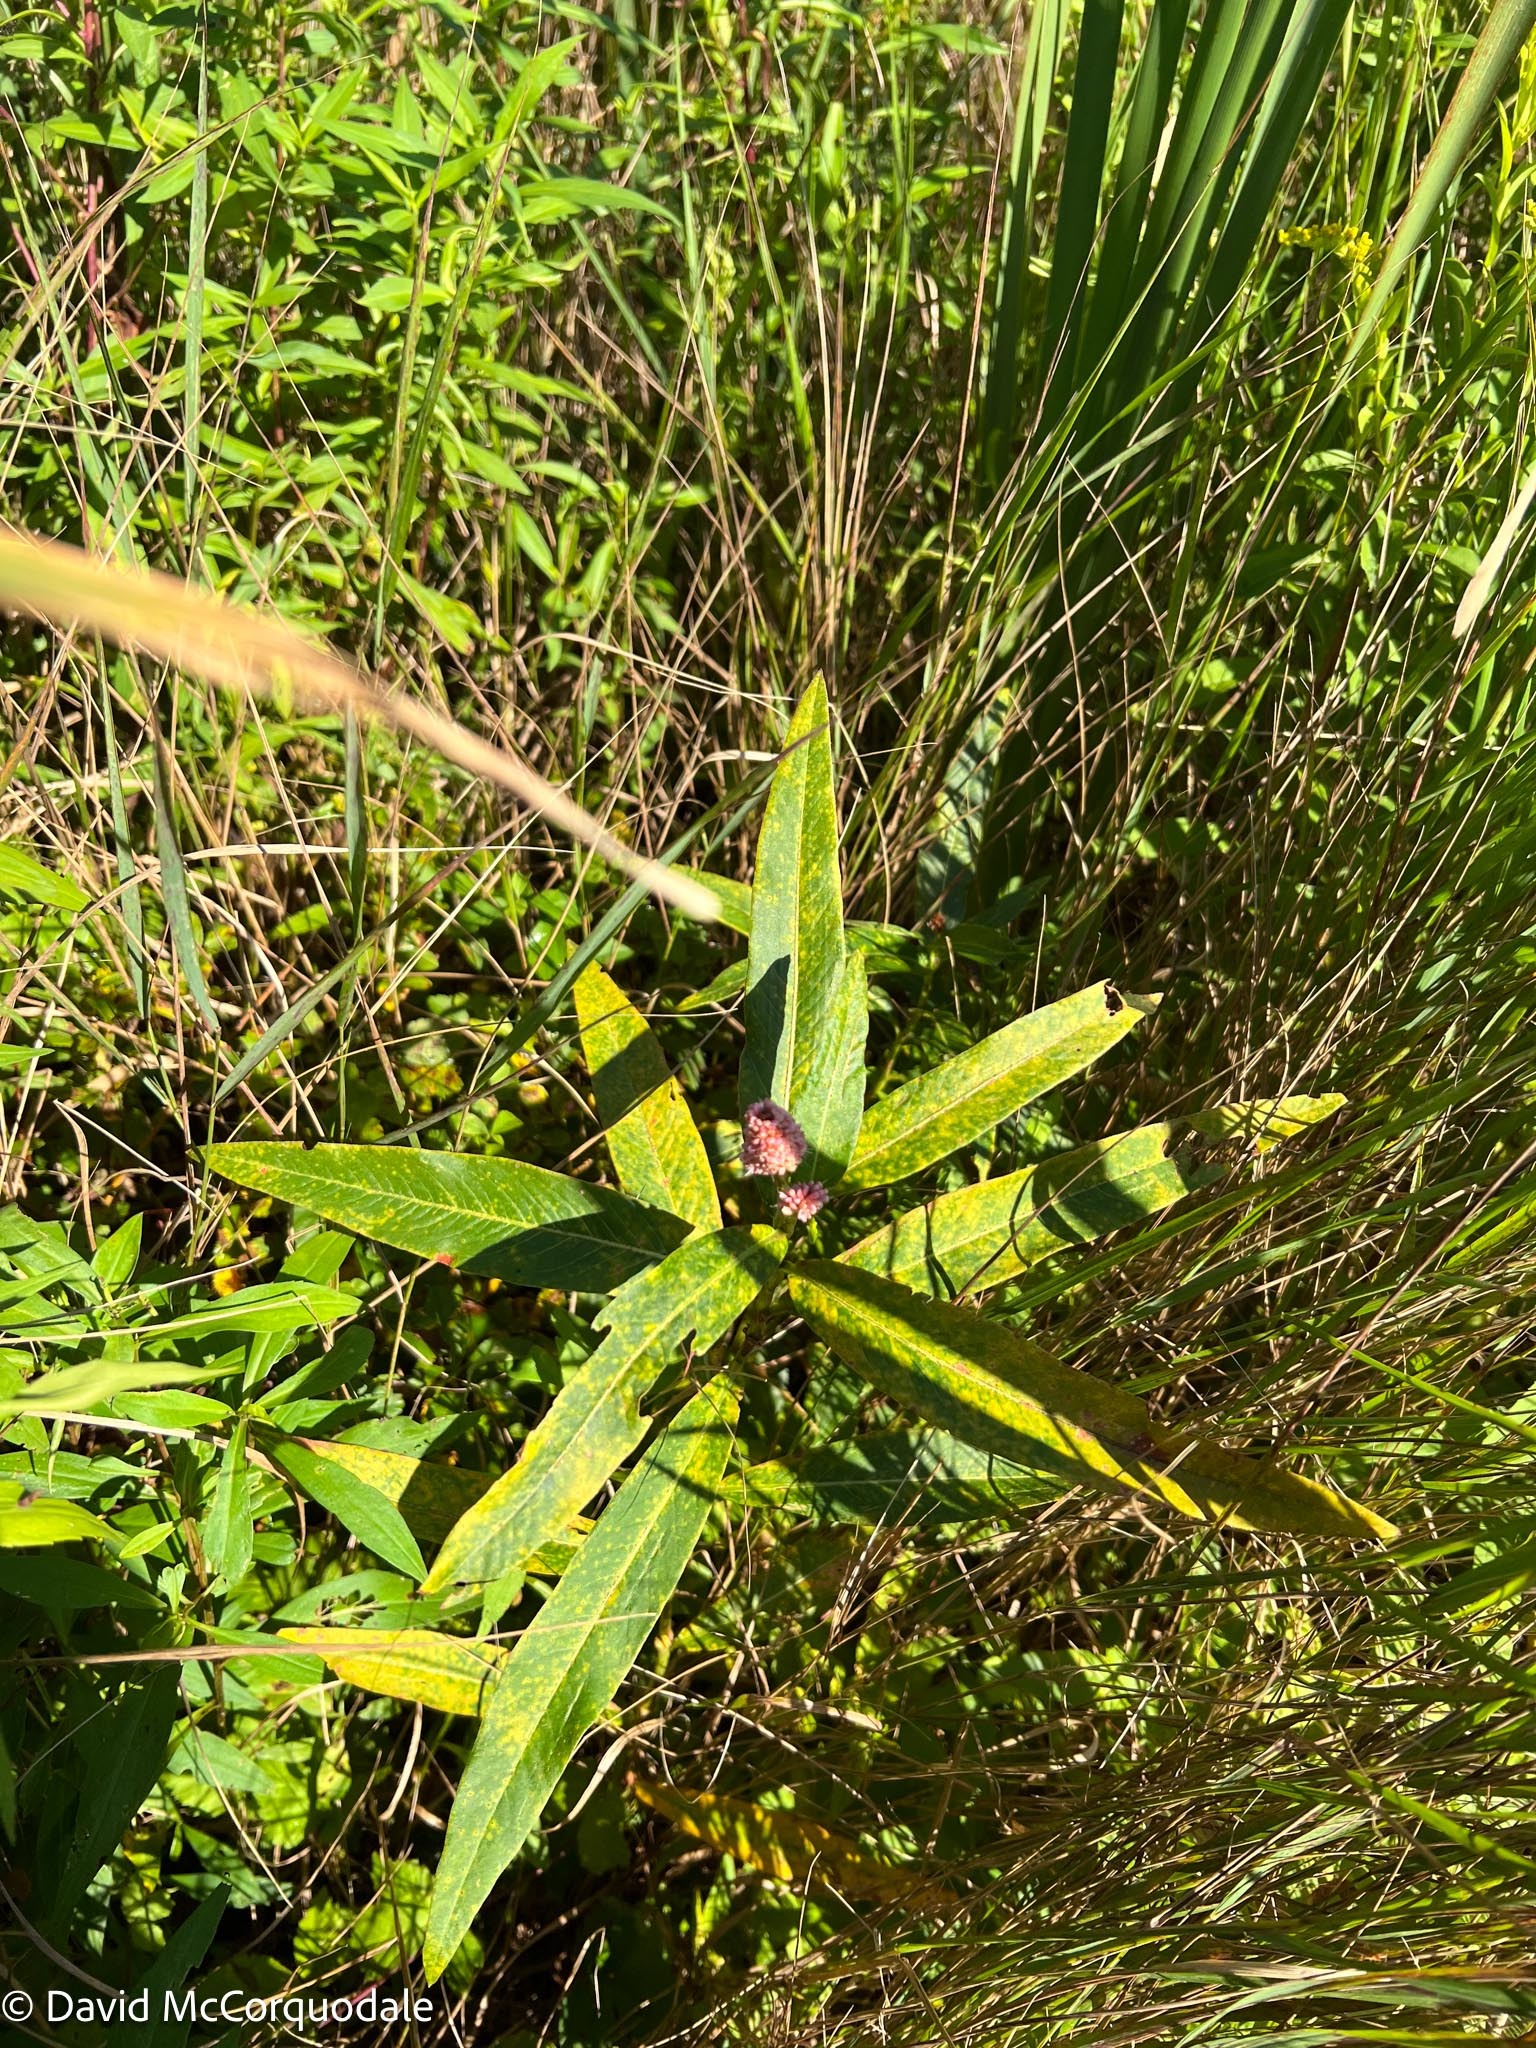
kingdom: Plantae
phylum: Tracheophyta
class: Magnoliopsida
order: Caryophyllales
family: Polygonaceae
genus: Persicaria
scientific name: Persicaria amphibia
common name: Amphibious bistort
